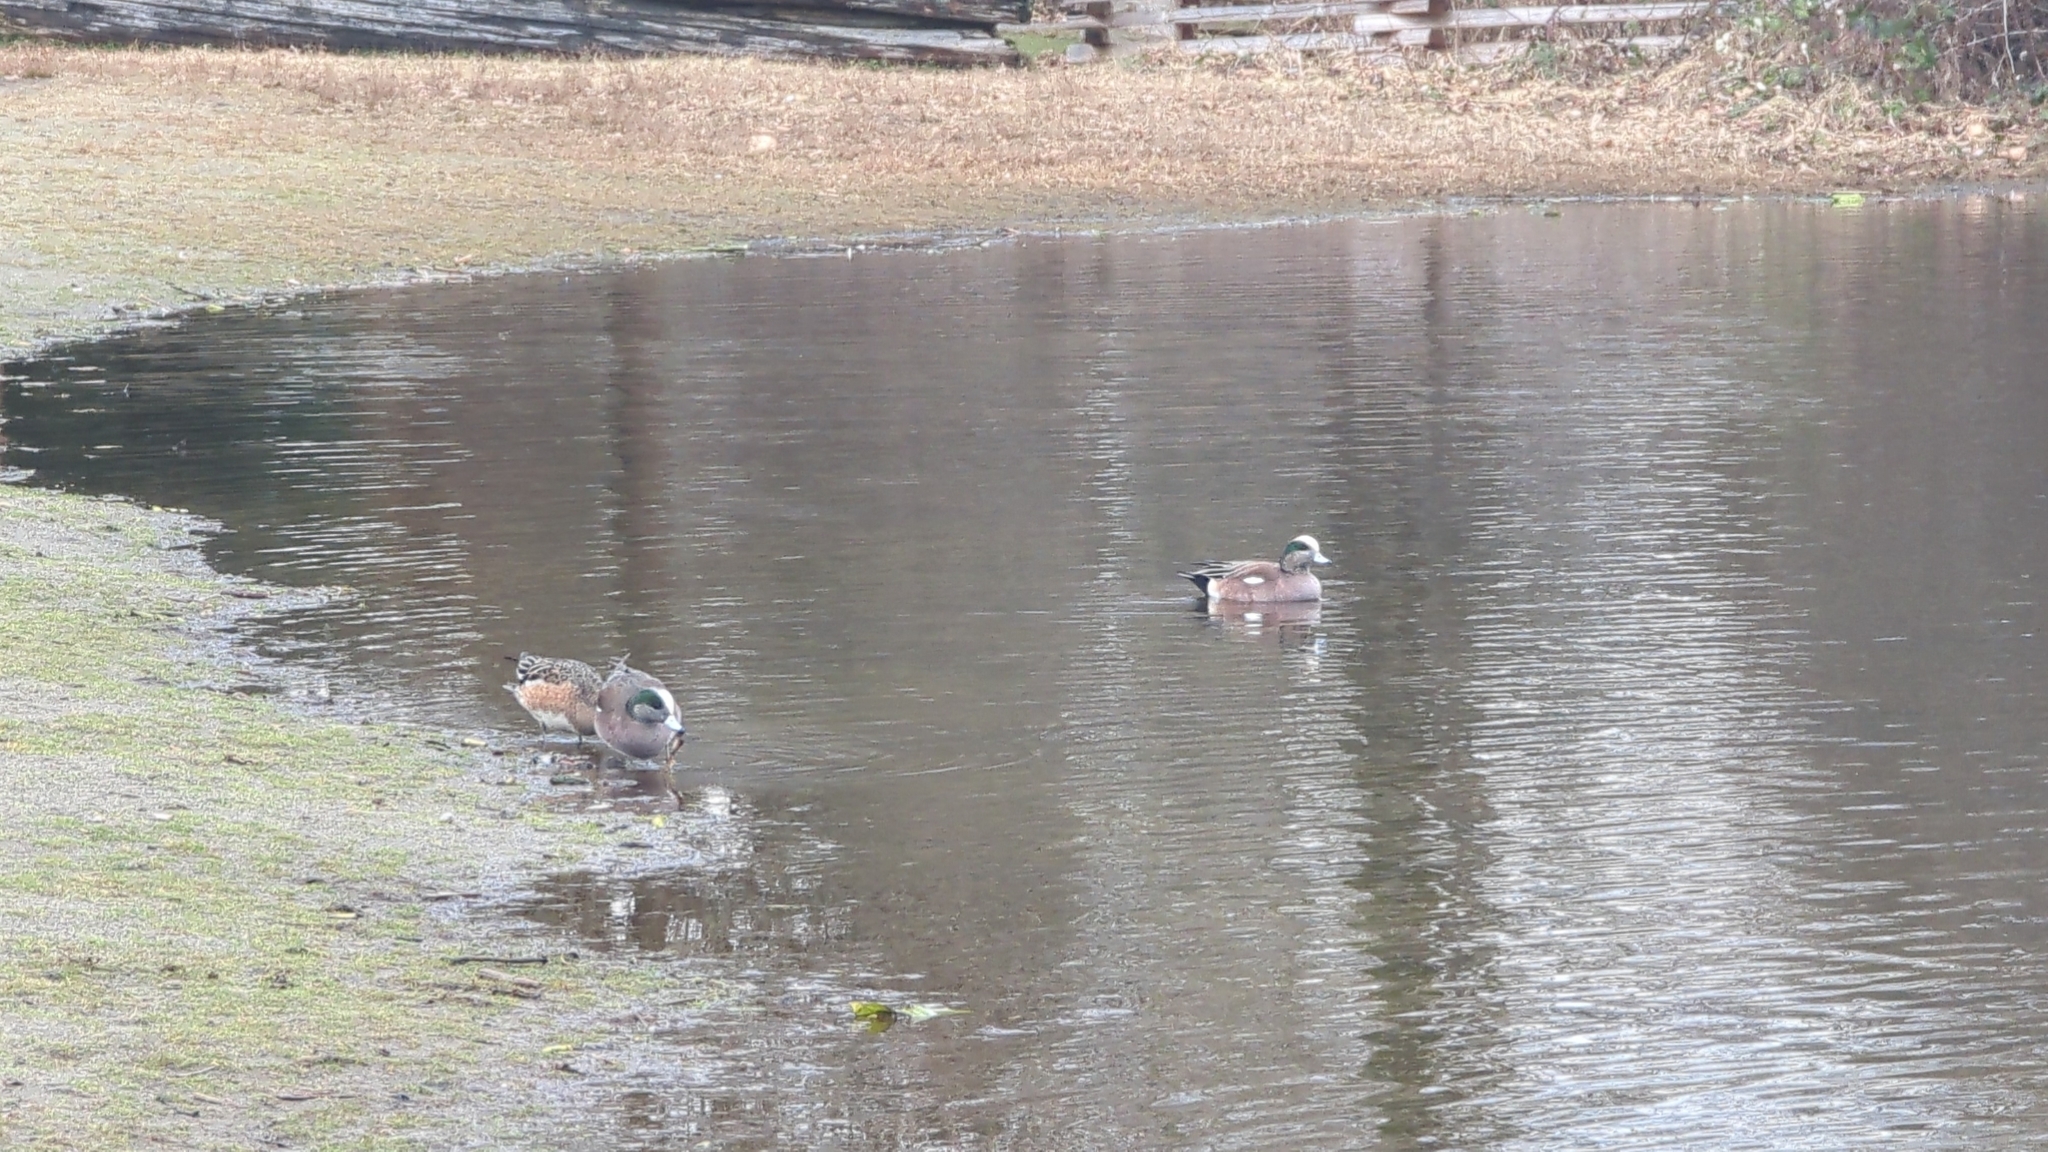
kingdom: Animalia
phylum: Chordata
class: Aves
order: Anseriformes
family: Anatidae
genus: Mareca
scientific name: Mareca americana
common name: American wigeon
